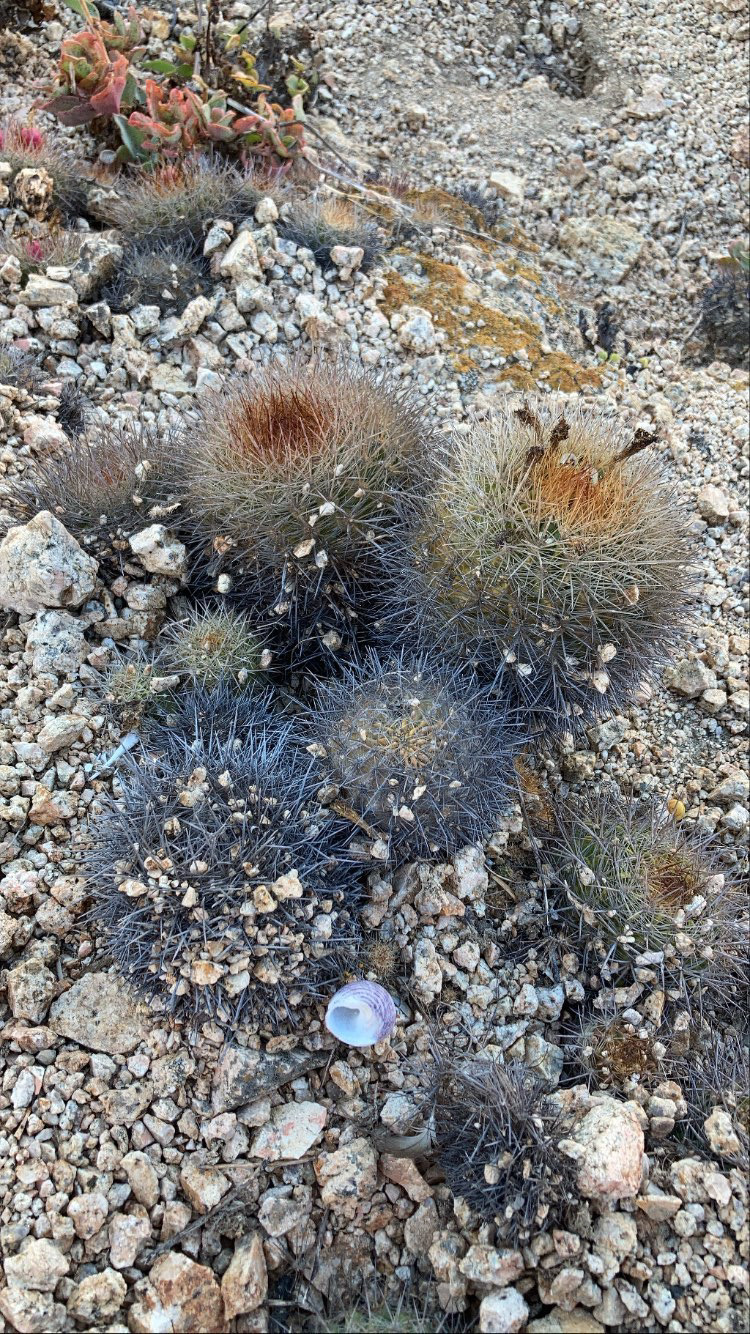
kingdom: Plantae
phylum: Tracheophyta
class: Magnoliopsida
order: Caryophyllales
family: Cactaceae
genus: Eriosyce
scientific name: Eriosyce subgibbosa
